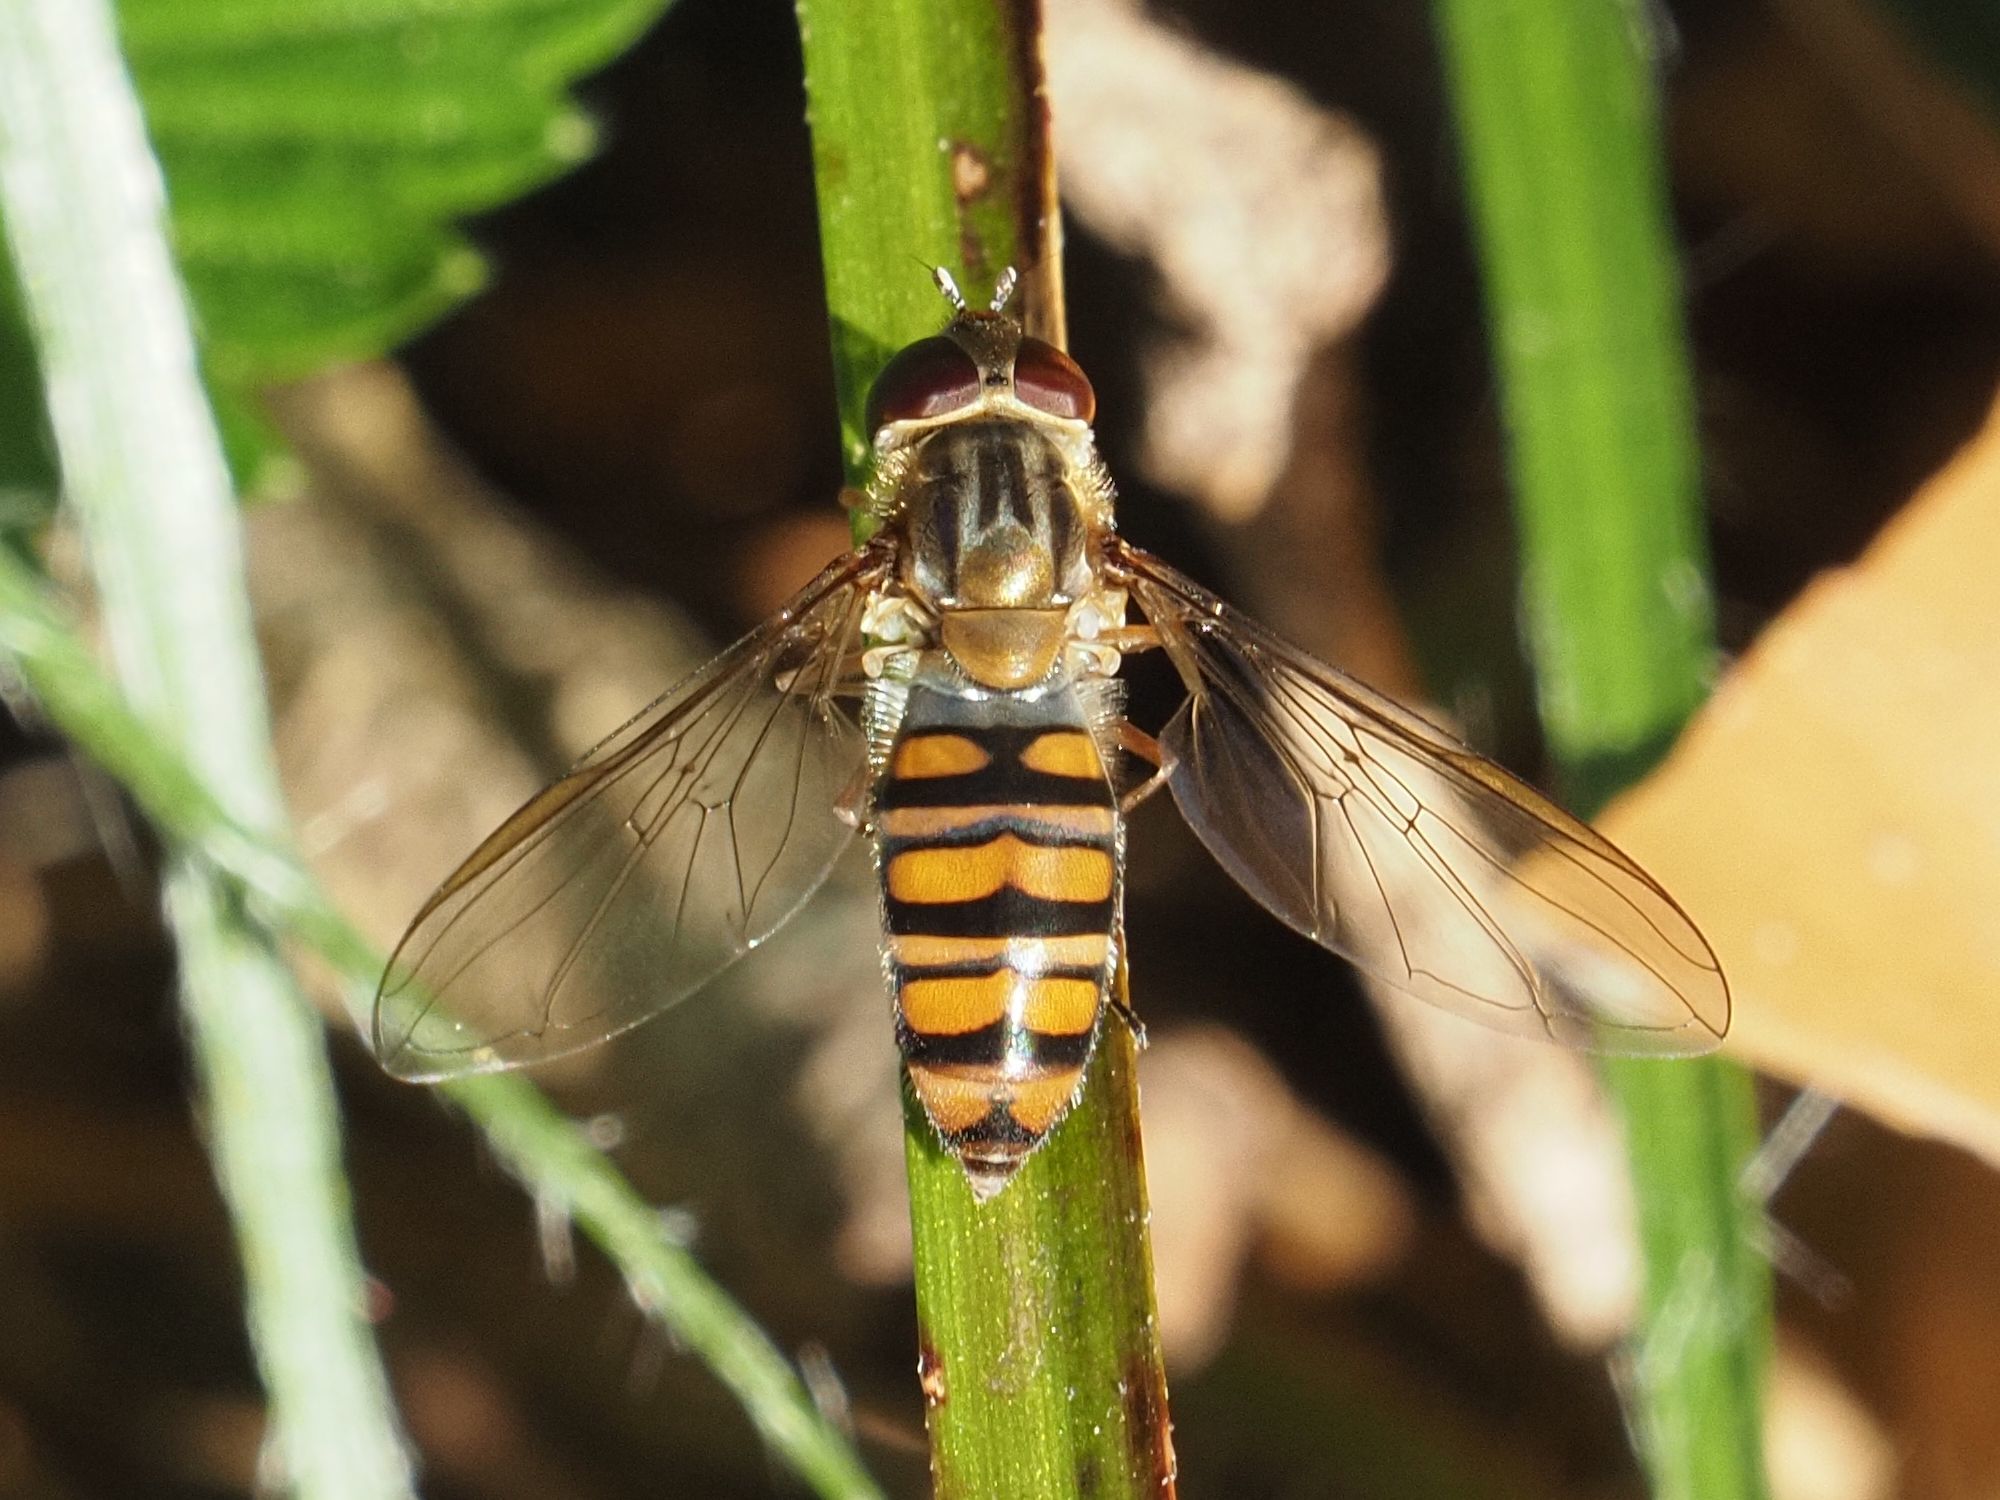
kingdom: Animalia
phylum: Arthropoda
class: Insecta
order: Diptera
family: Syrphidae
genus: Episyrphus
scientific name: Episyrphus balteatus
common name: Marmalade hoverfly
